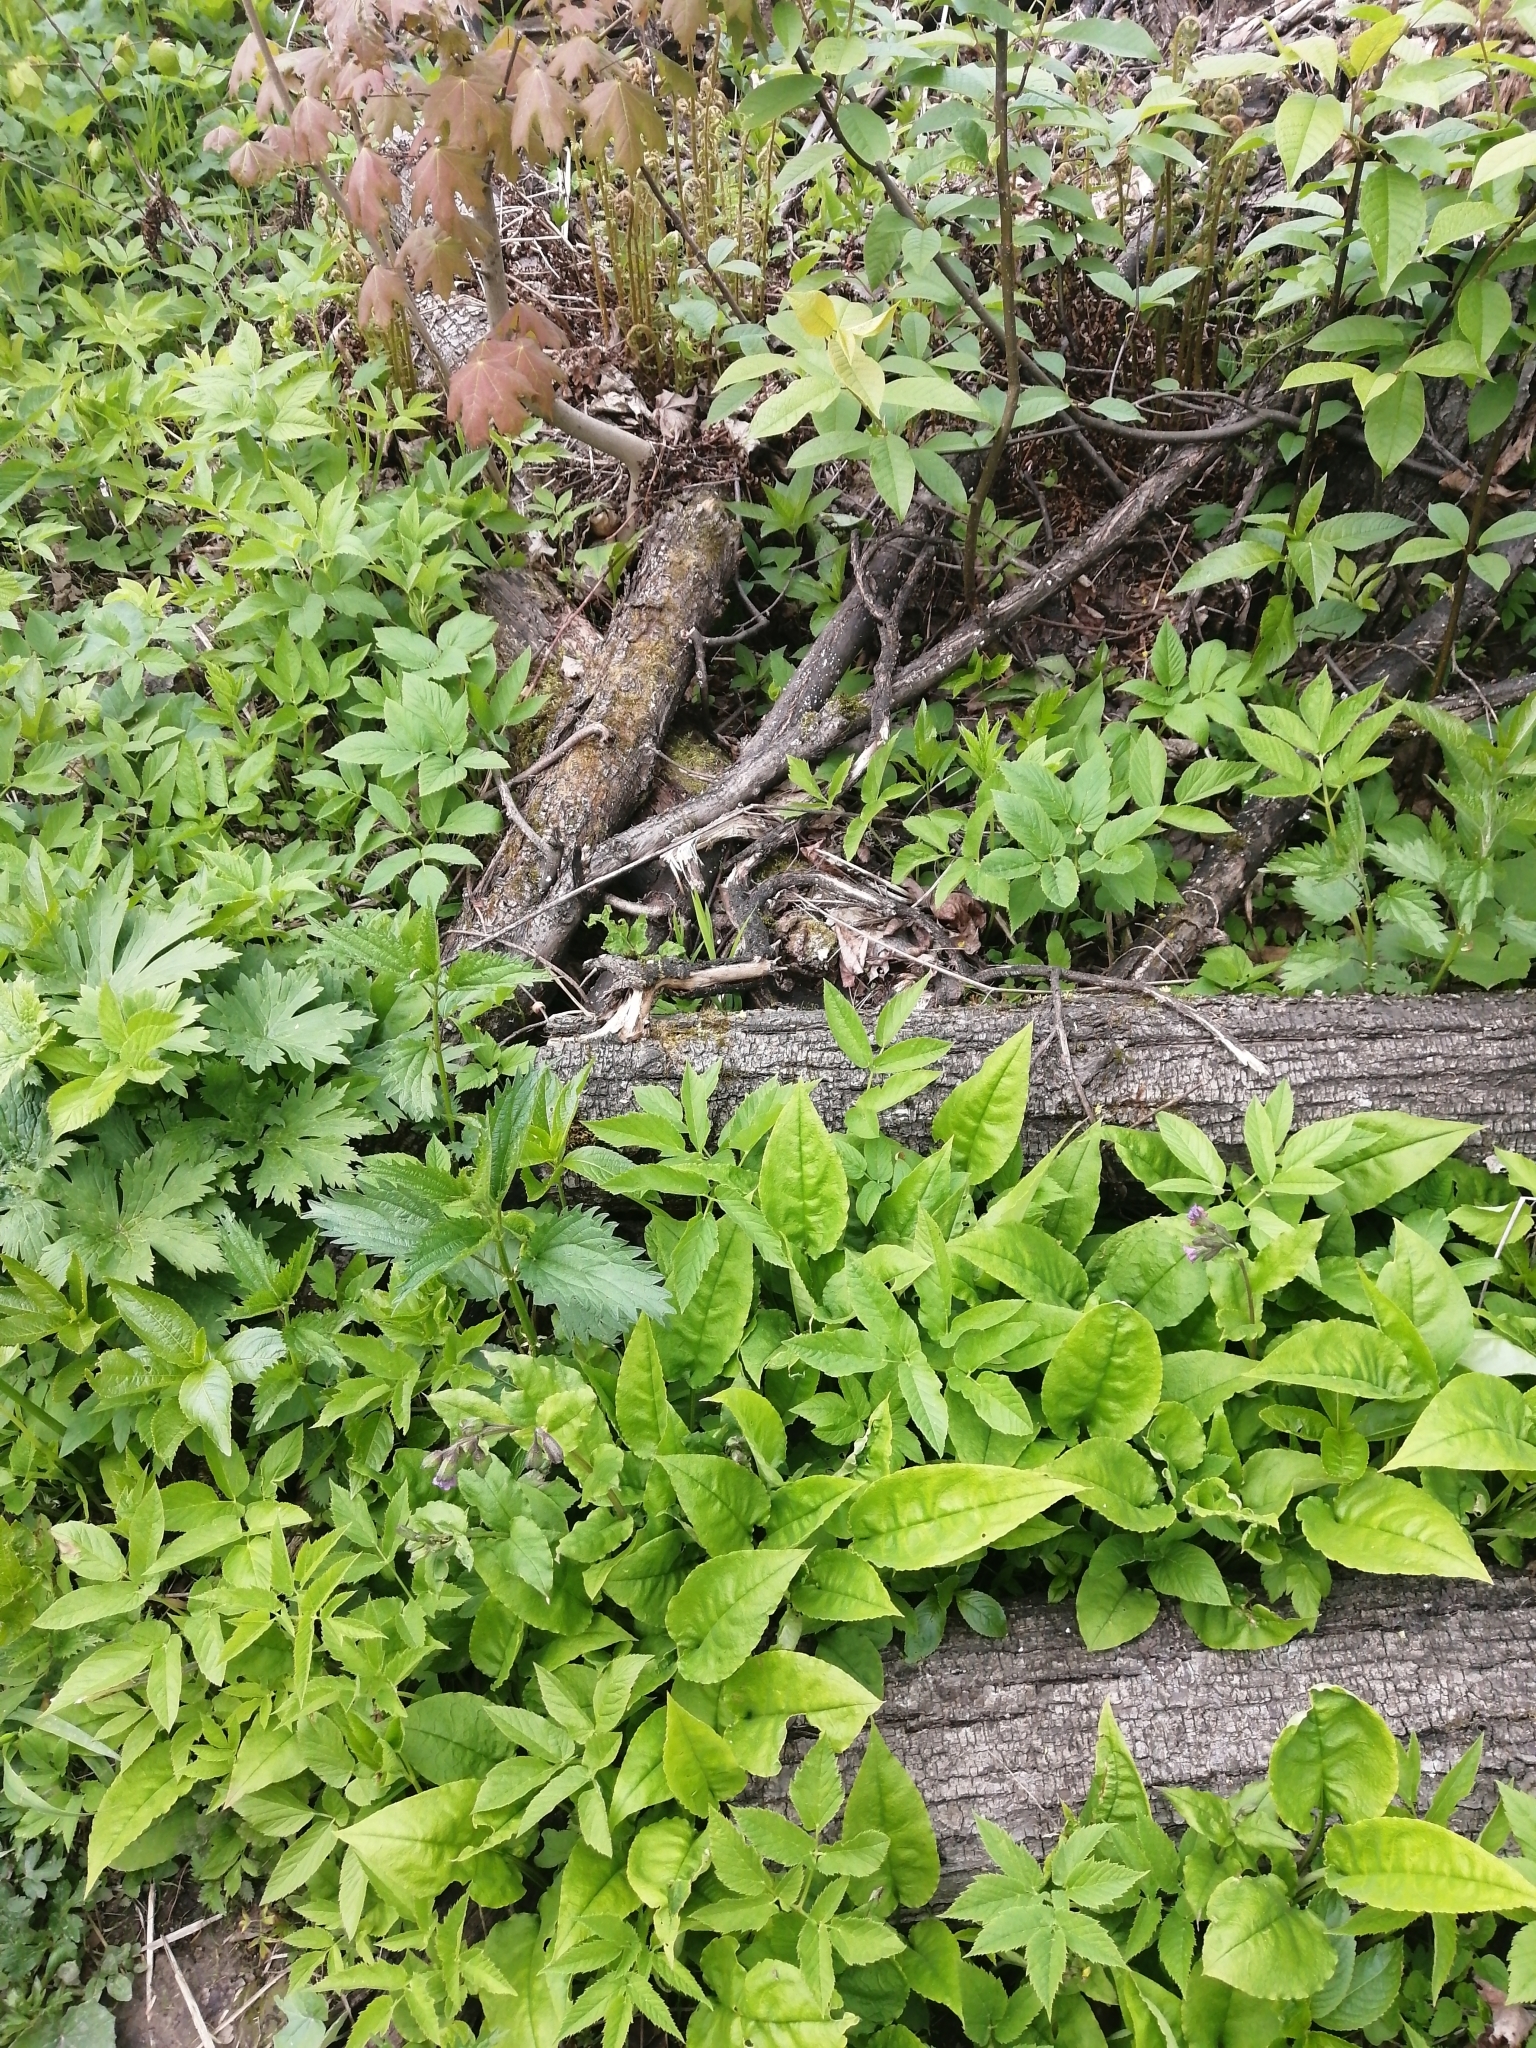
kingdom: Plantae
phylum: Tracheophyta
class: Magnoliopsida
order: Boraginales
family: Boraginaceae
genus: Pulmonaria
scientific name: Pulmonaria obscura
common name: Suffolk lungwort
